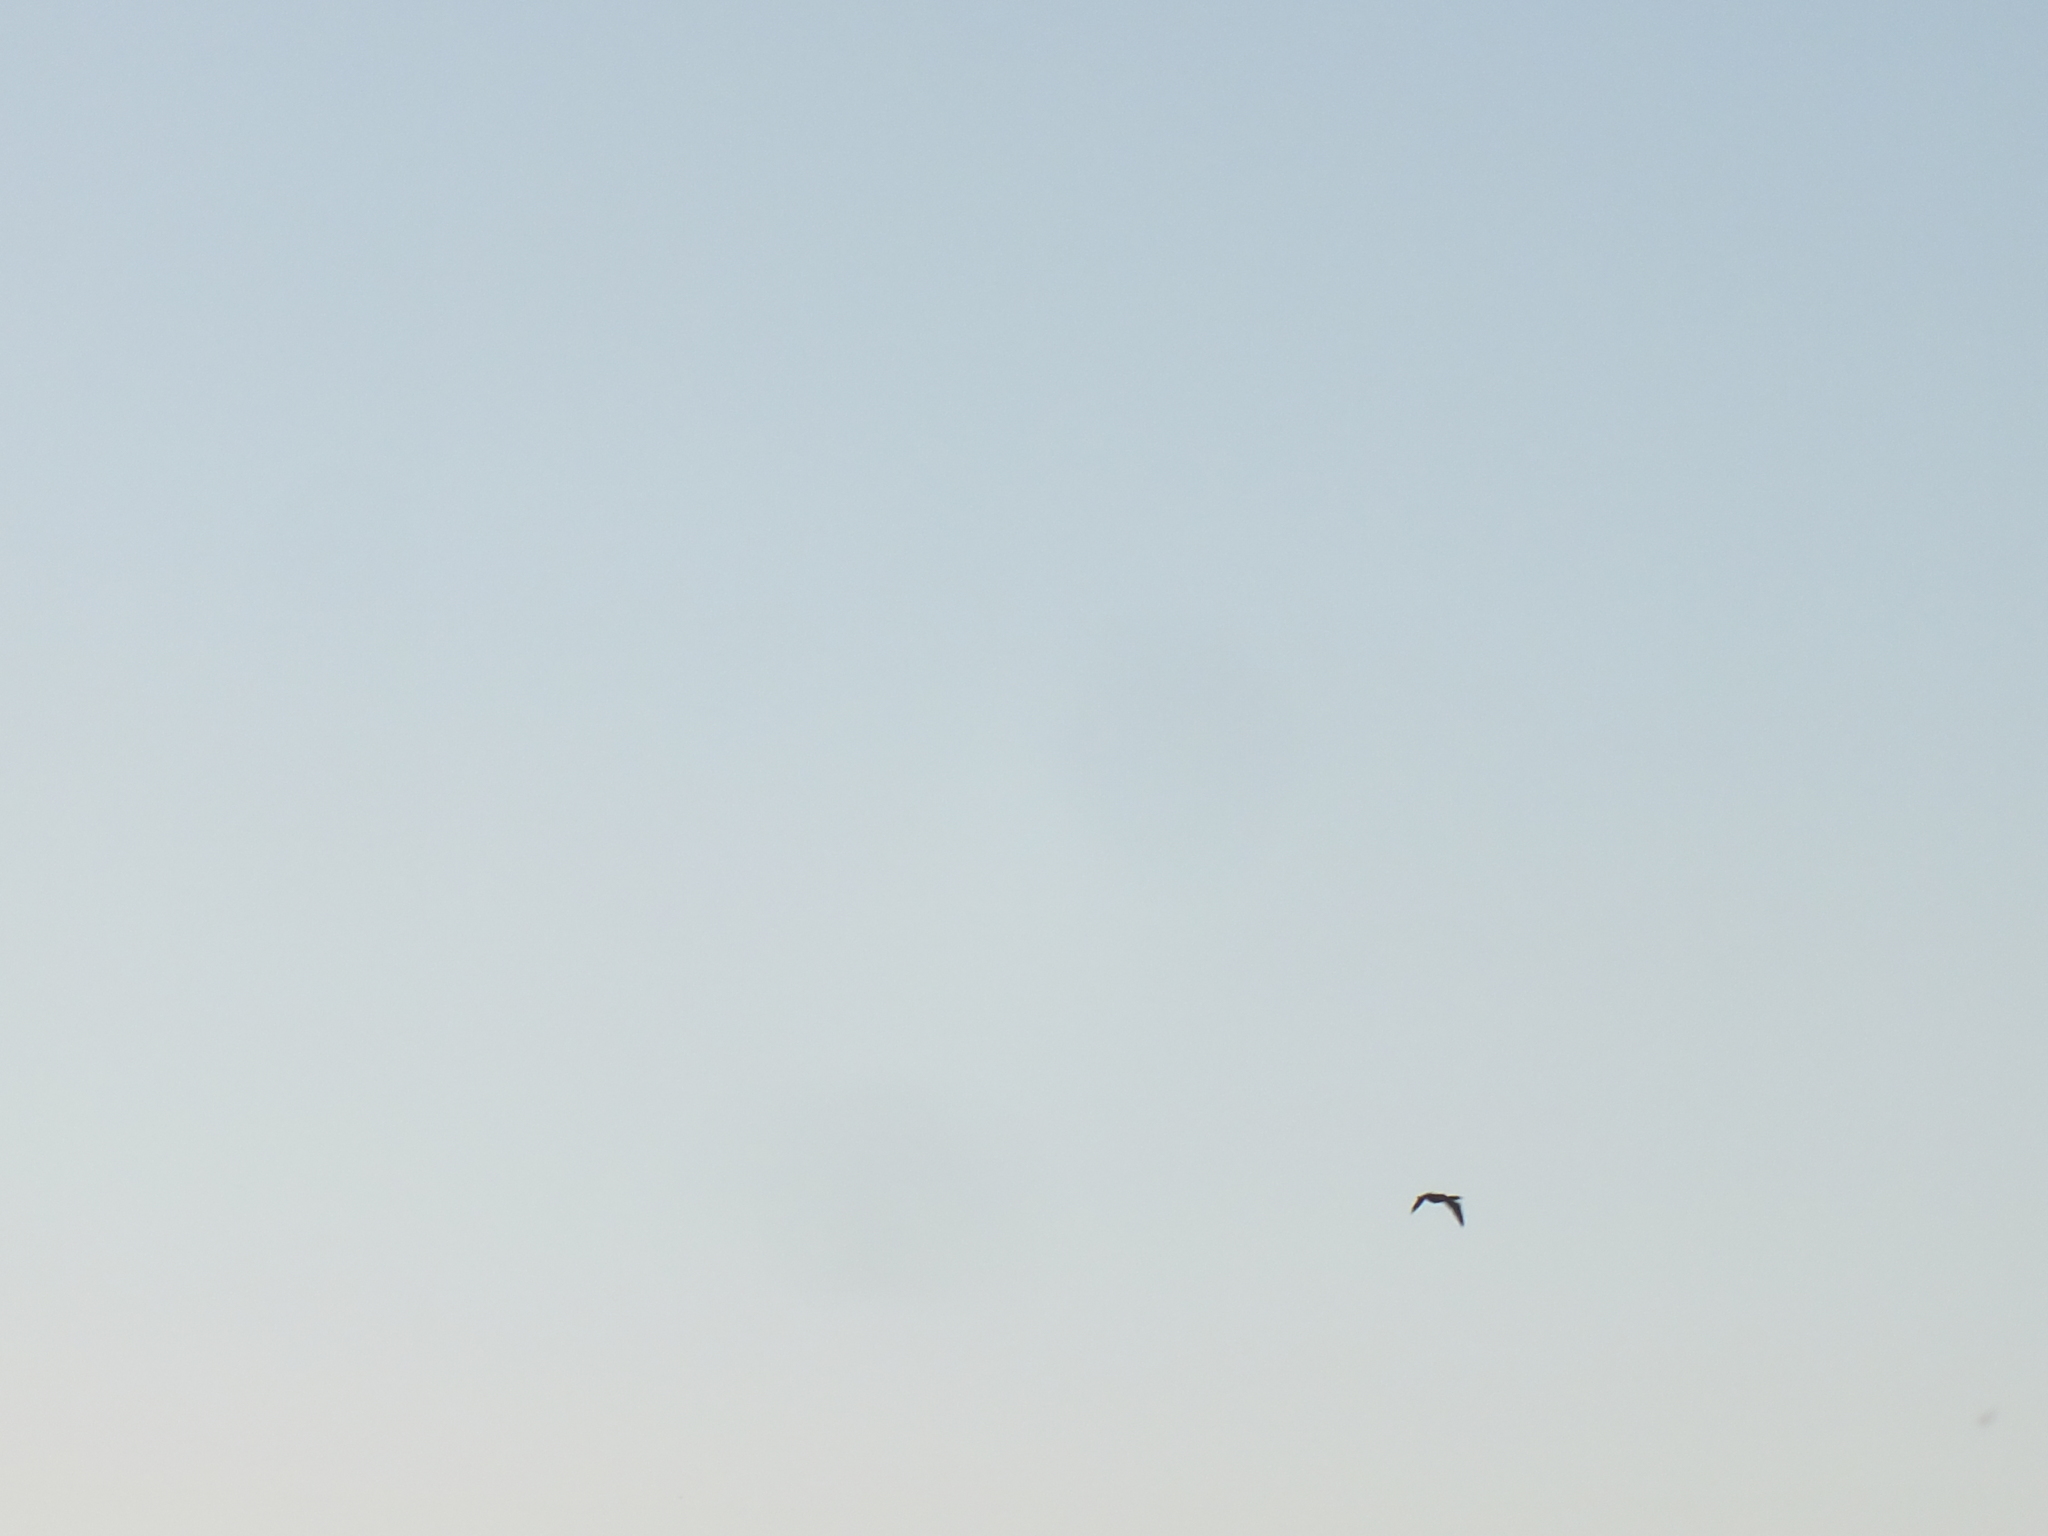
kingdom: Animalia
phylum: Chordata
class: Aves
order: Suliformes
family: Phalacrocoracidae
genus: Phalacrocorax
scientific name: Phalacrocorax auritus
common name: Double-crested cormorant
